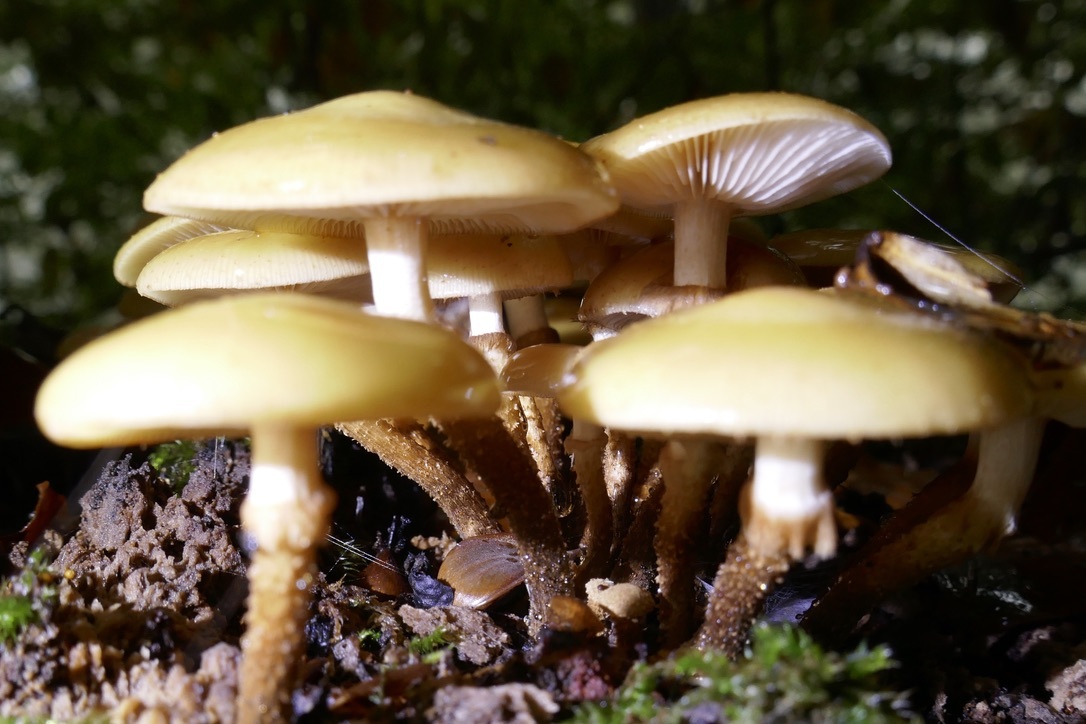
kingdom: Fungi
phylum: Basidiomycota
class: Agaricomycetes
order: Agaricales
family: Strophariaceae
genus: Kuehneromyces
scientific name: Kuehneromyces mutabilis
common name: Sheathed woodtuft
